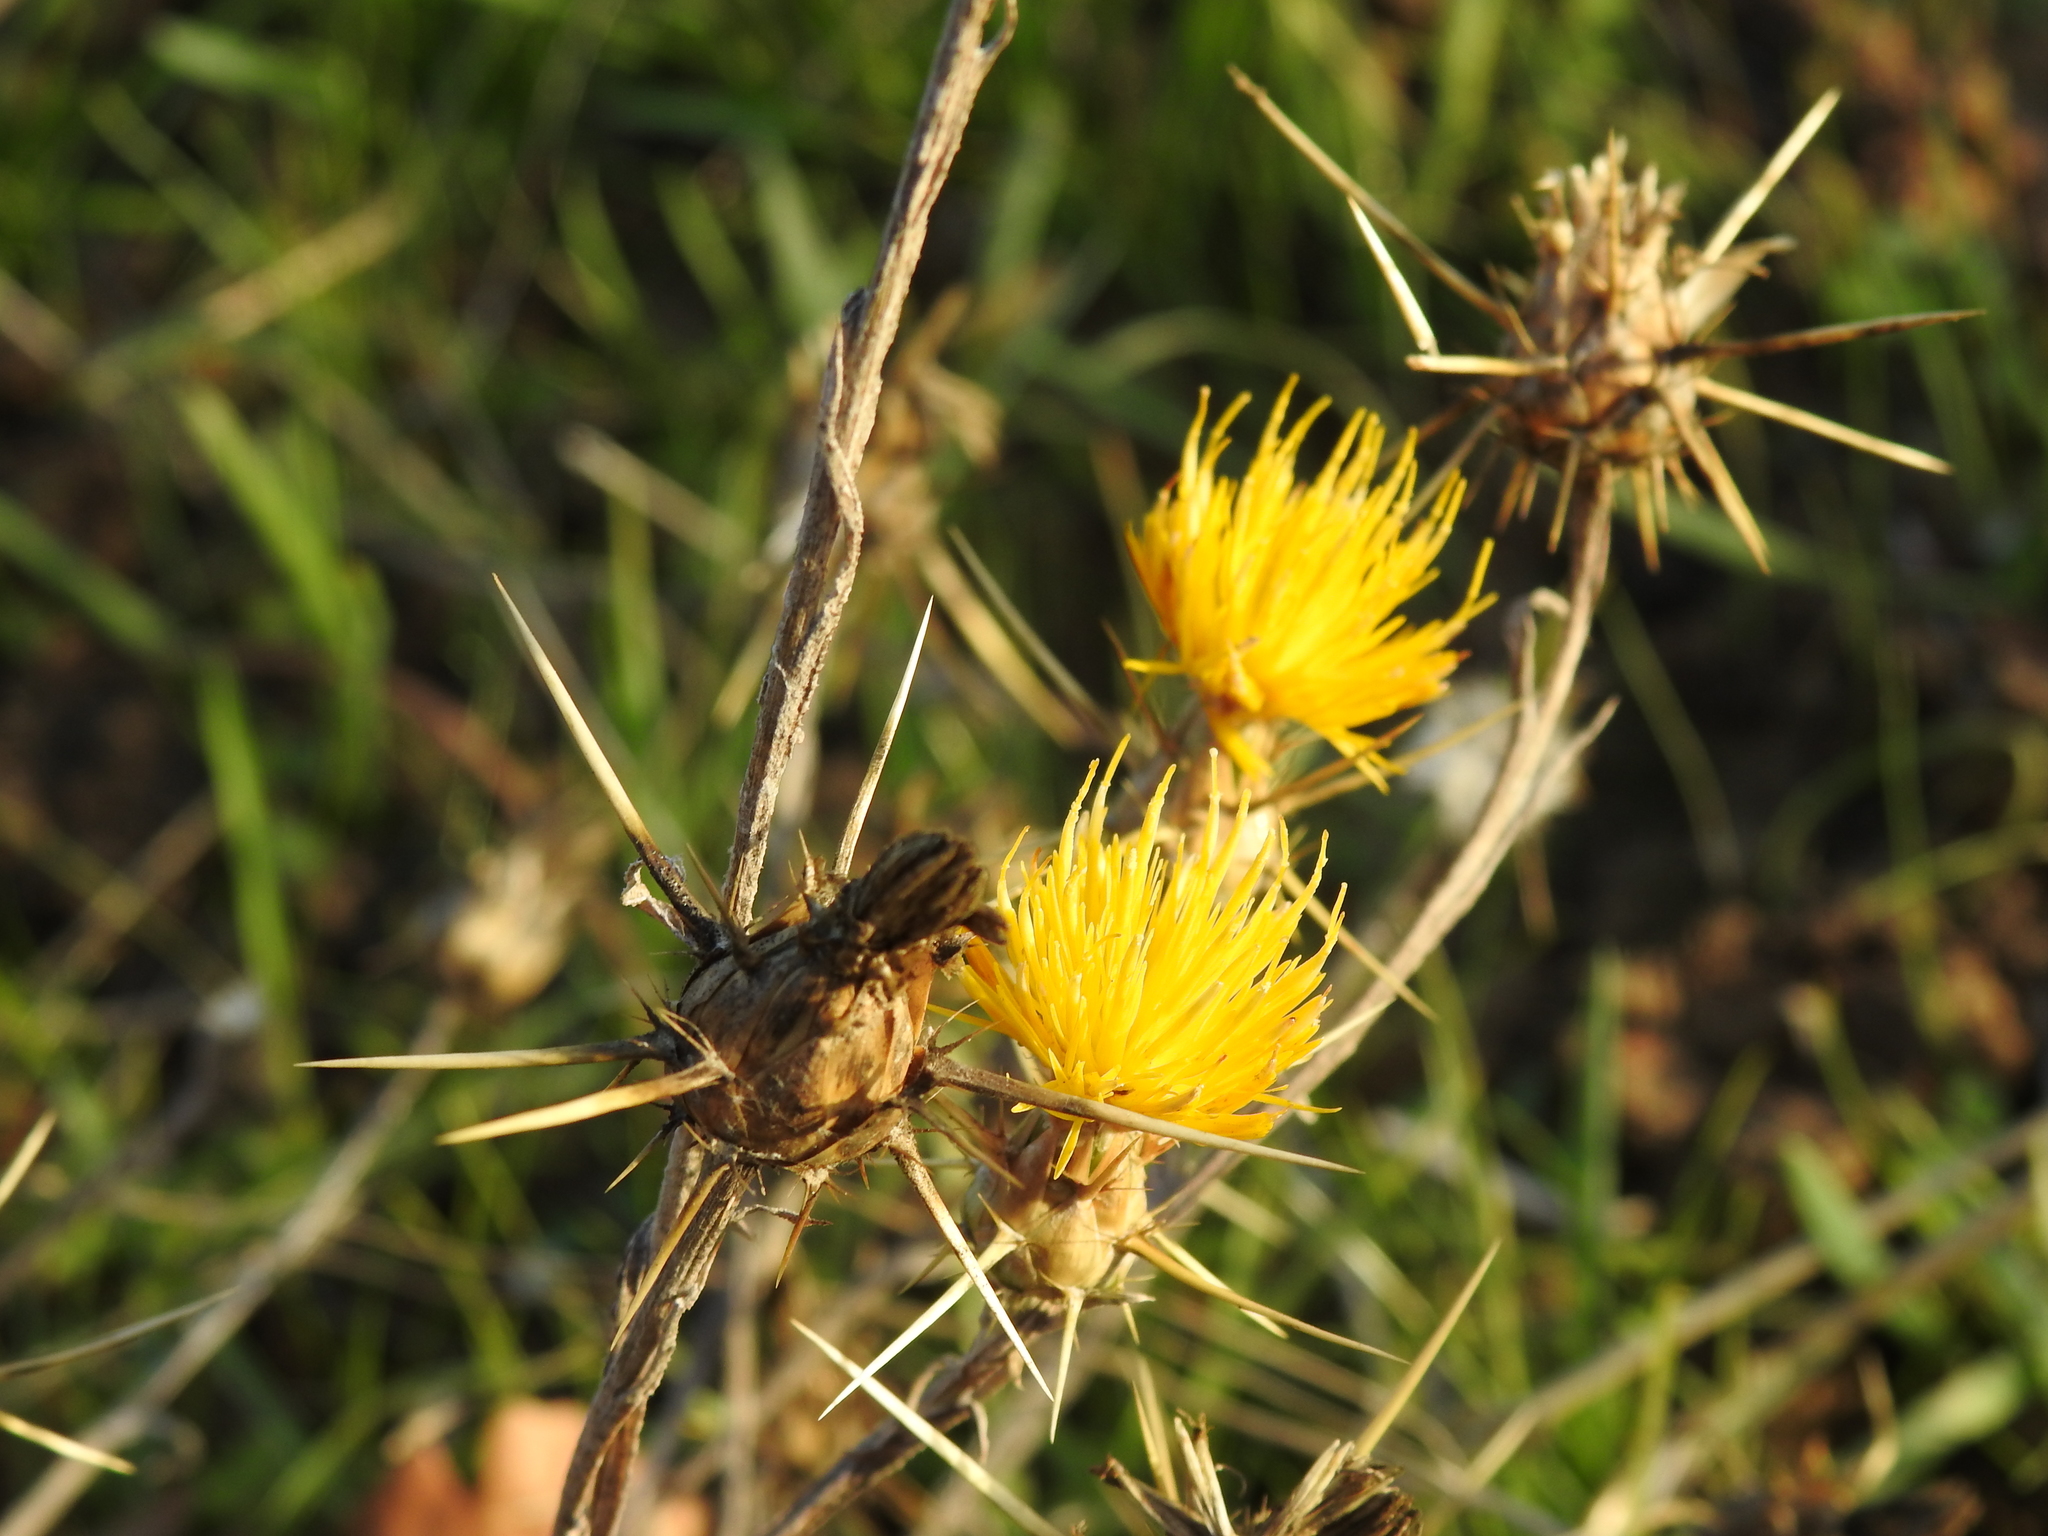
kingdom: Plantae
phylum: Tracheophyta
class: Magnoliopsida
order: Asterales
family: Asteraceae
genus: Centaurea
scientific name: Centaurea solstitialis
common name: Yellow star-thistle
